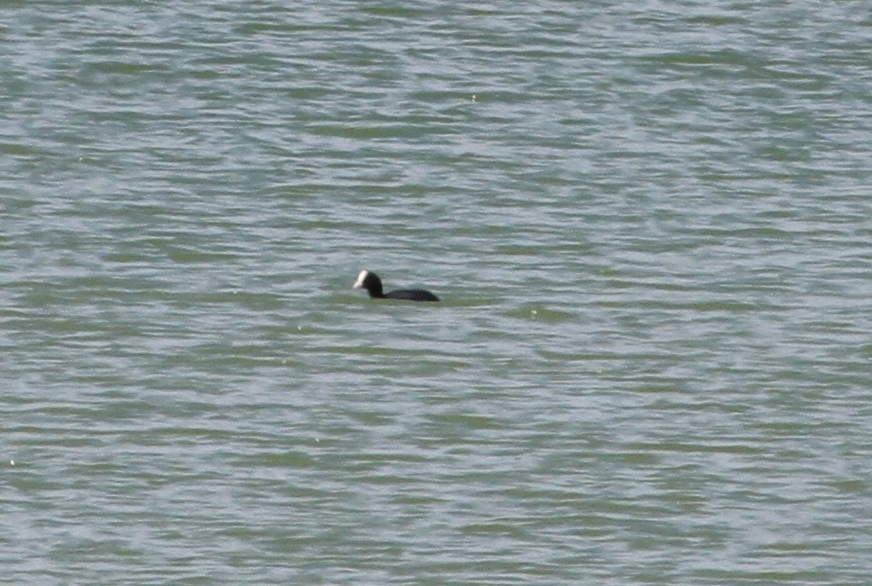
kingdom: Animalia
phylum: Chordata
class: Aves
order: Gruiformes
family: Rallidae
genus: Fulica
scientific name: Fulica atra
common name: Eurasian coot
